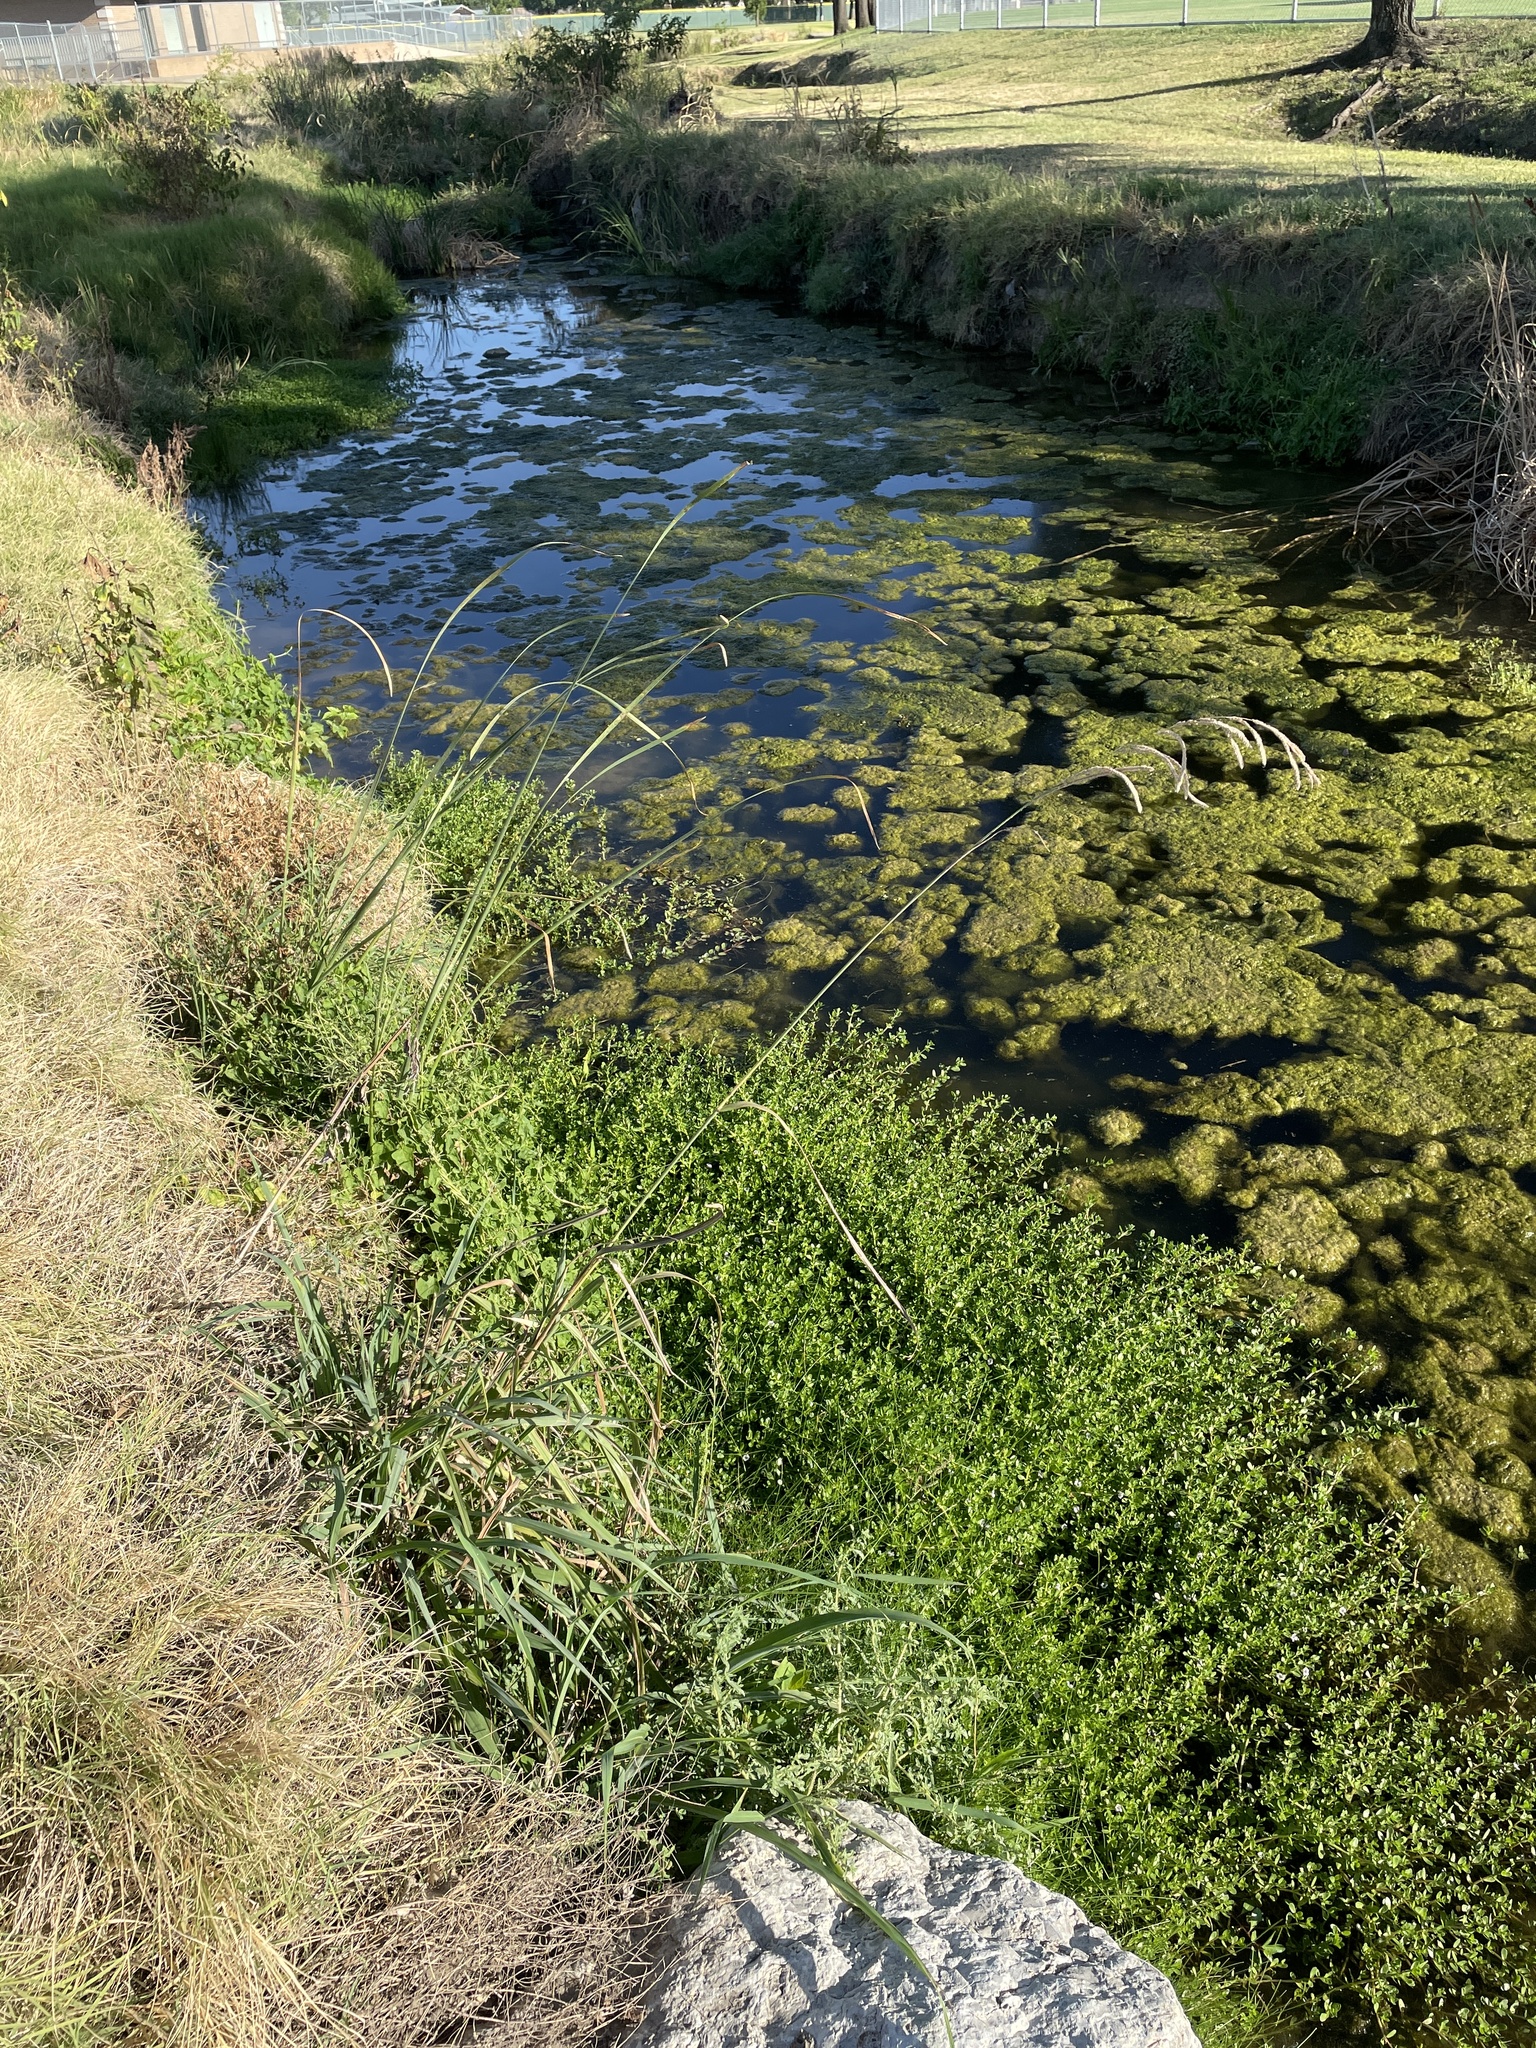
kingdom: Plantae
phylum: Tracheophyta
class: Liliopsida
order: Poales
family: Poaceae
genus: Paspalum
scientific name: Paspalum urvillei
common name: Vasey's grass
